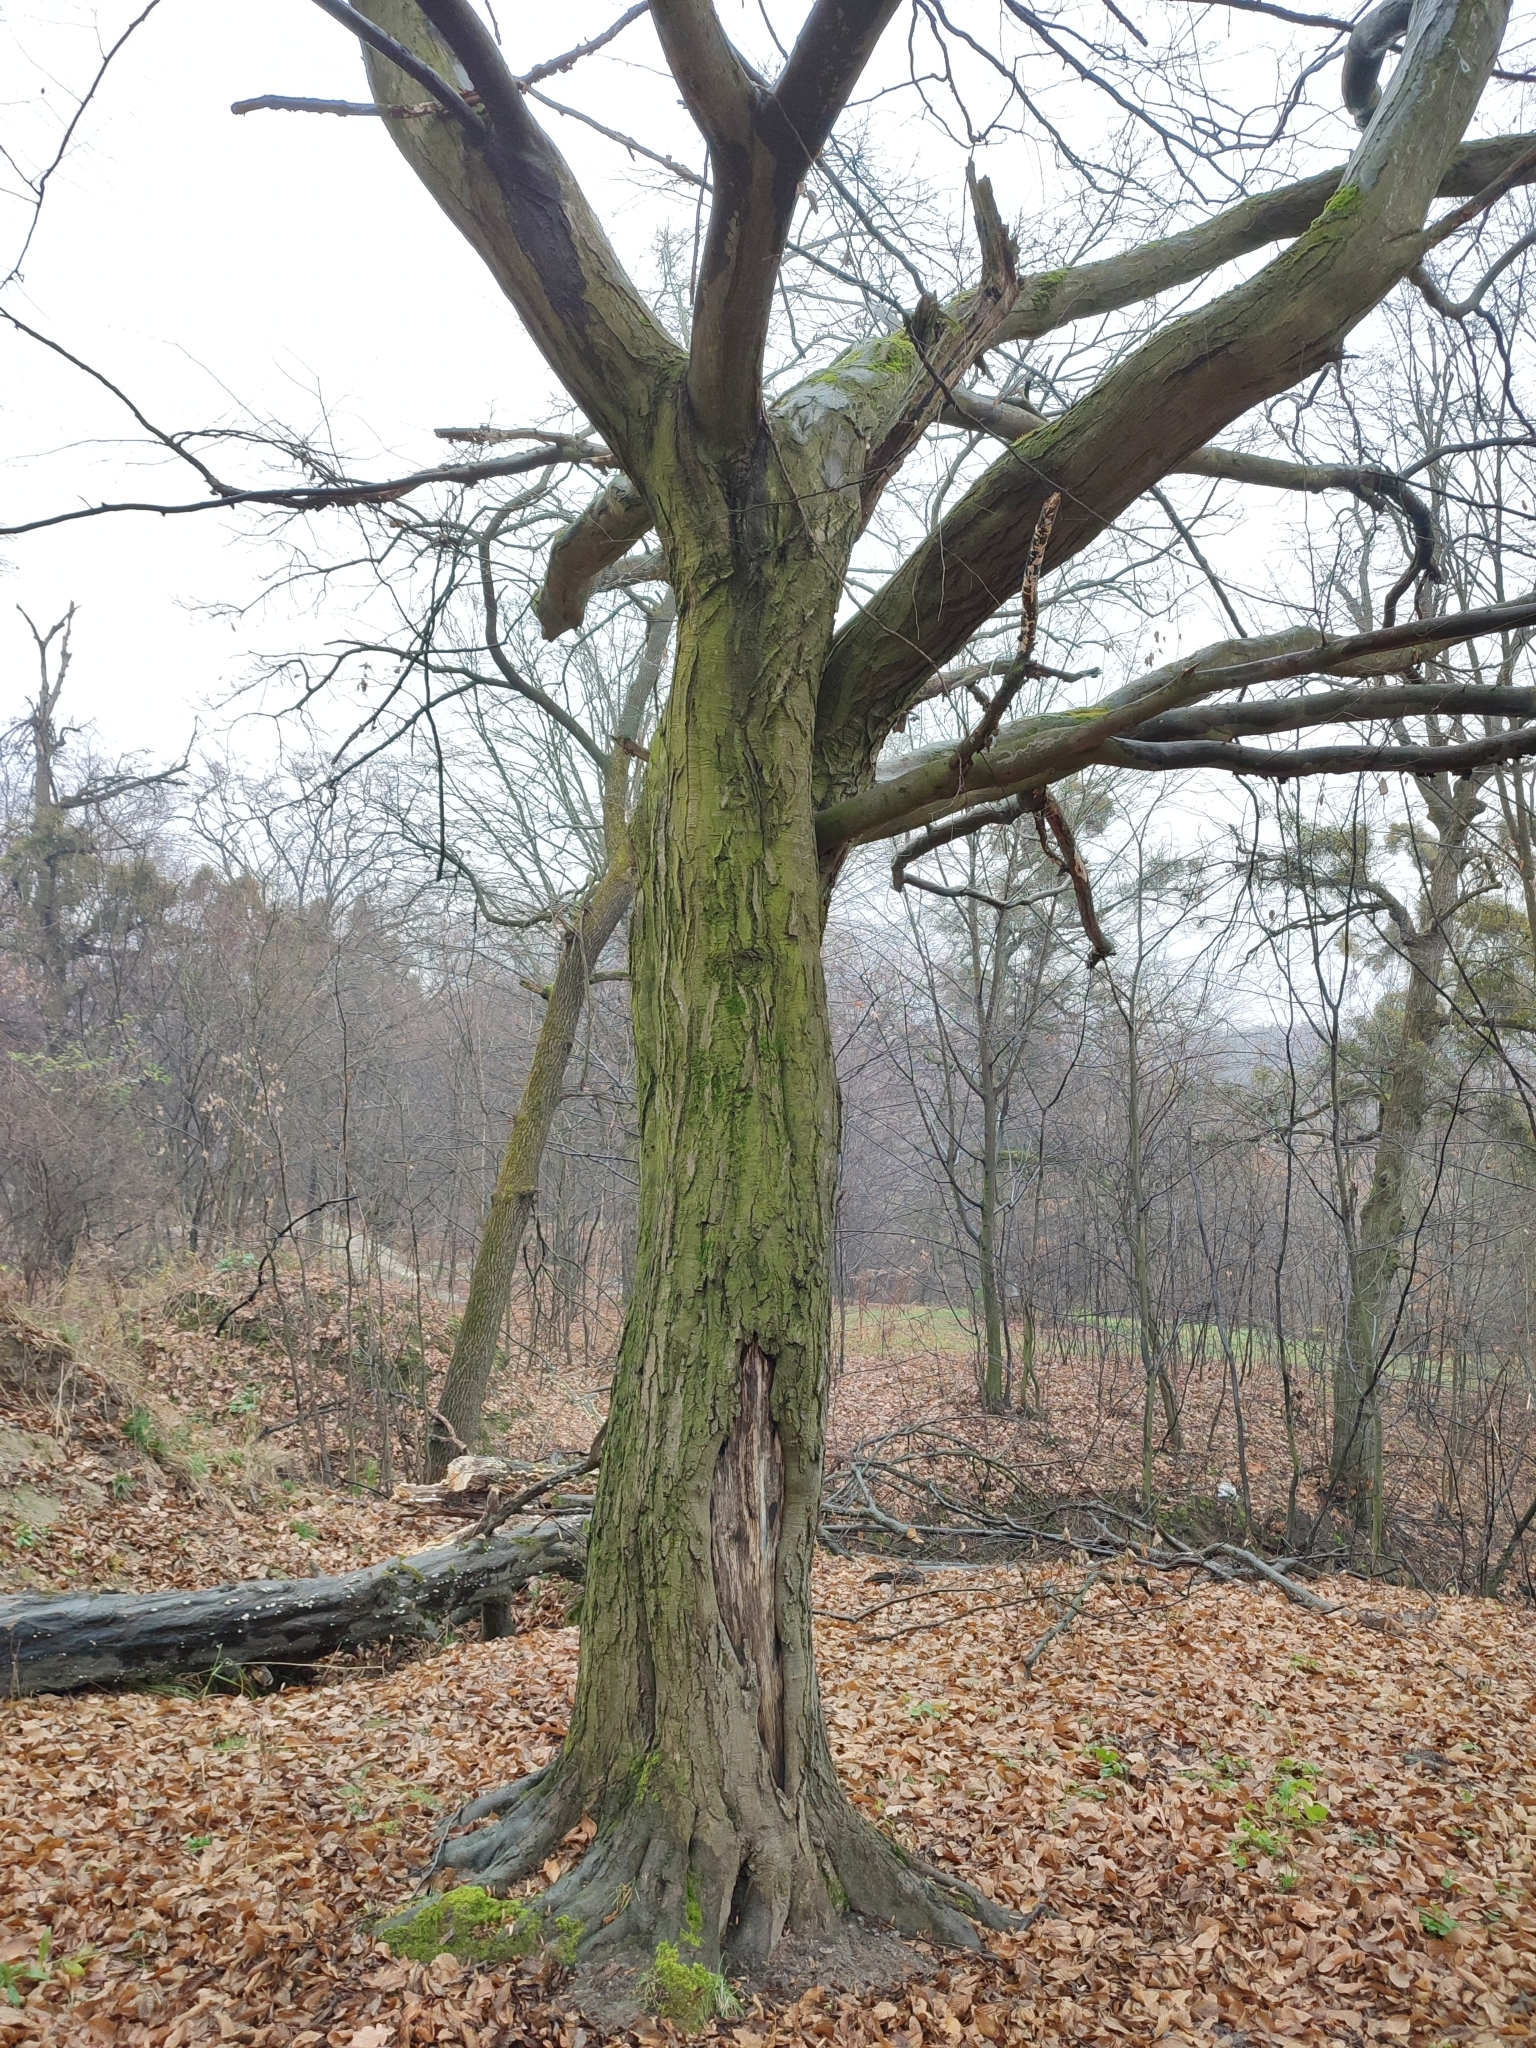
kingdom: Plantae
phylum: Tracheophyta
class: Magnoliopsida
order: Fagales
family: Betulaceae
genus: Carpinus
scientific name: Carpinus betulus
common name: Hornbeam
